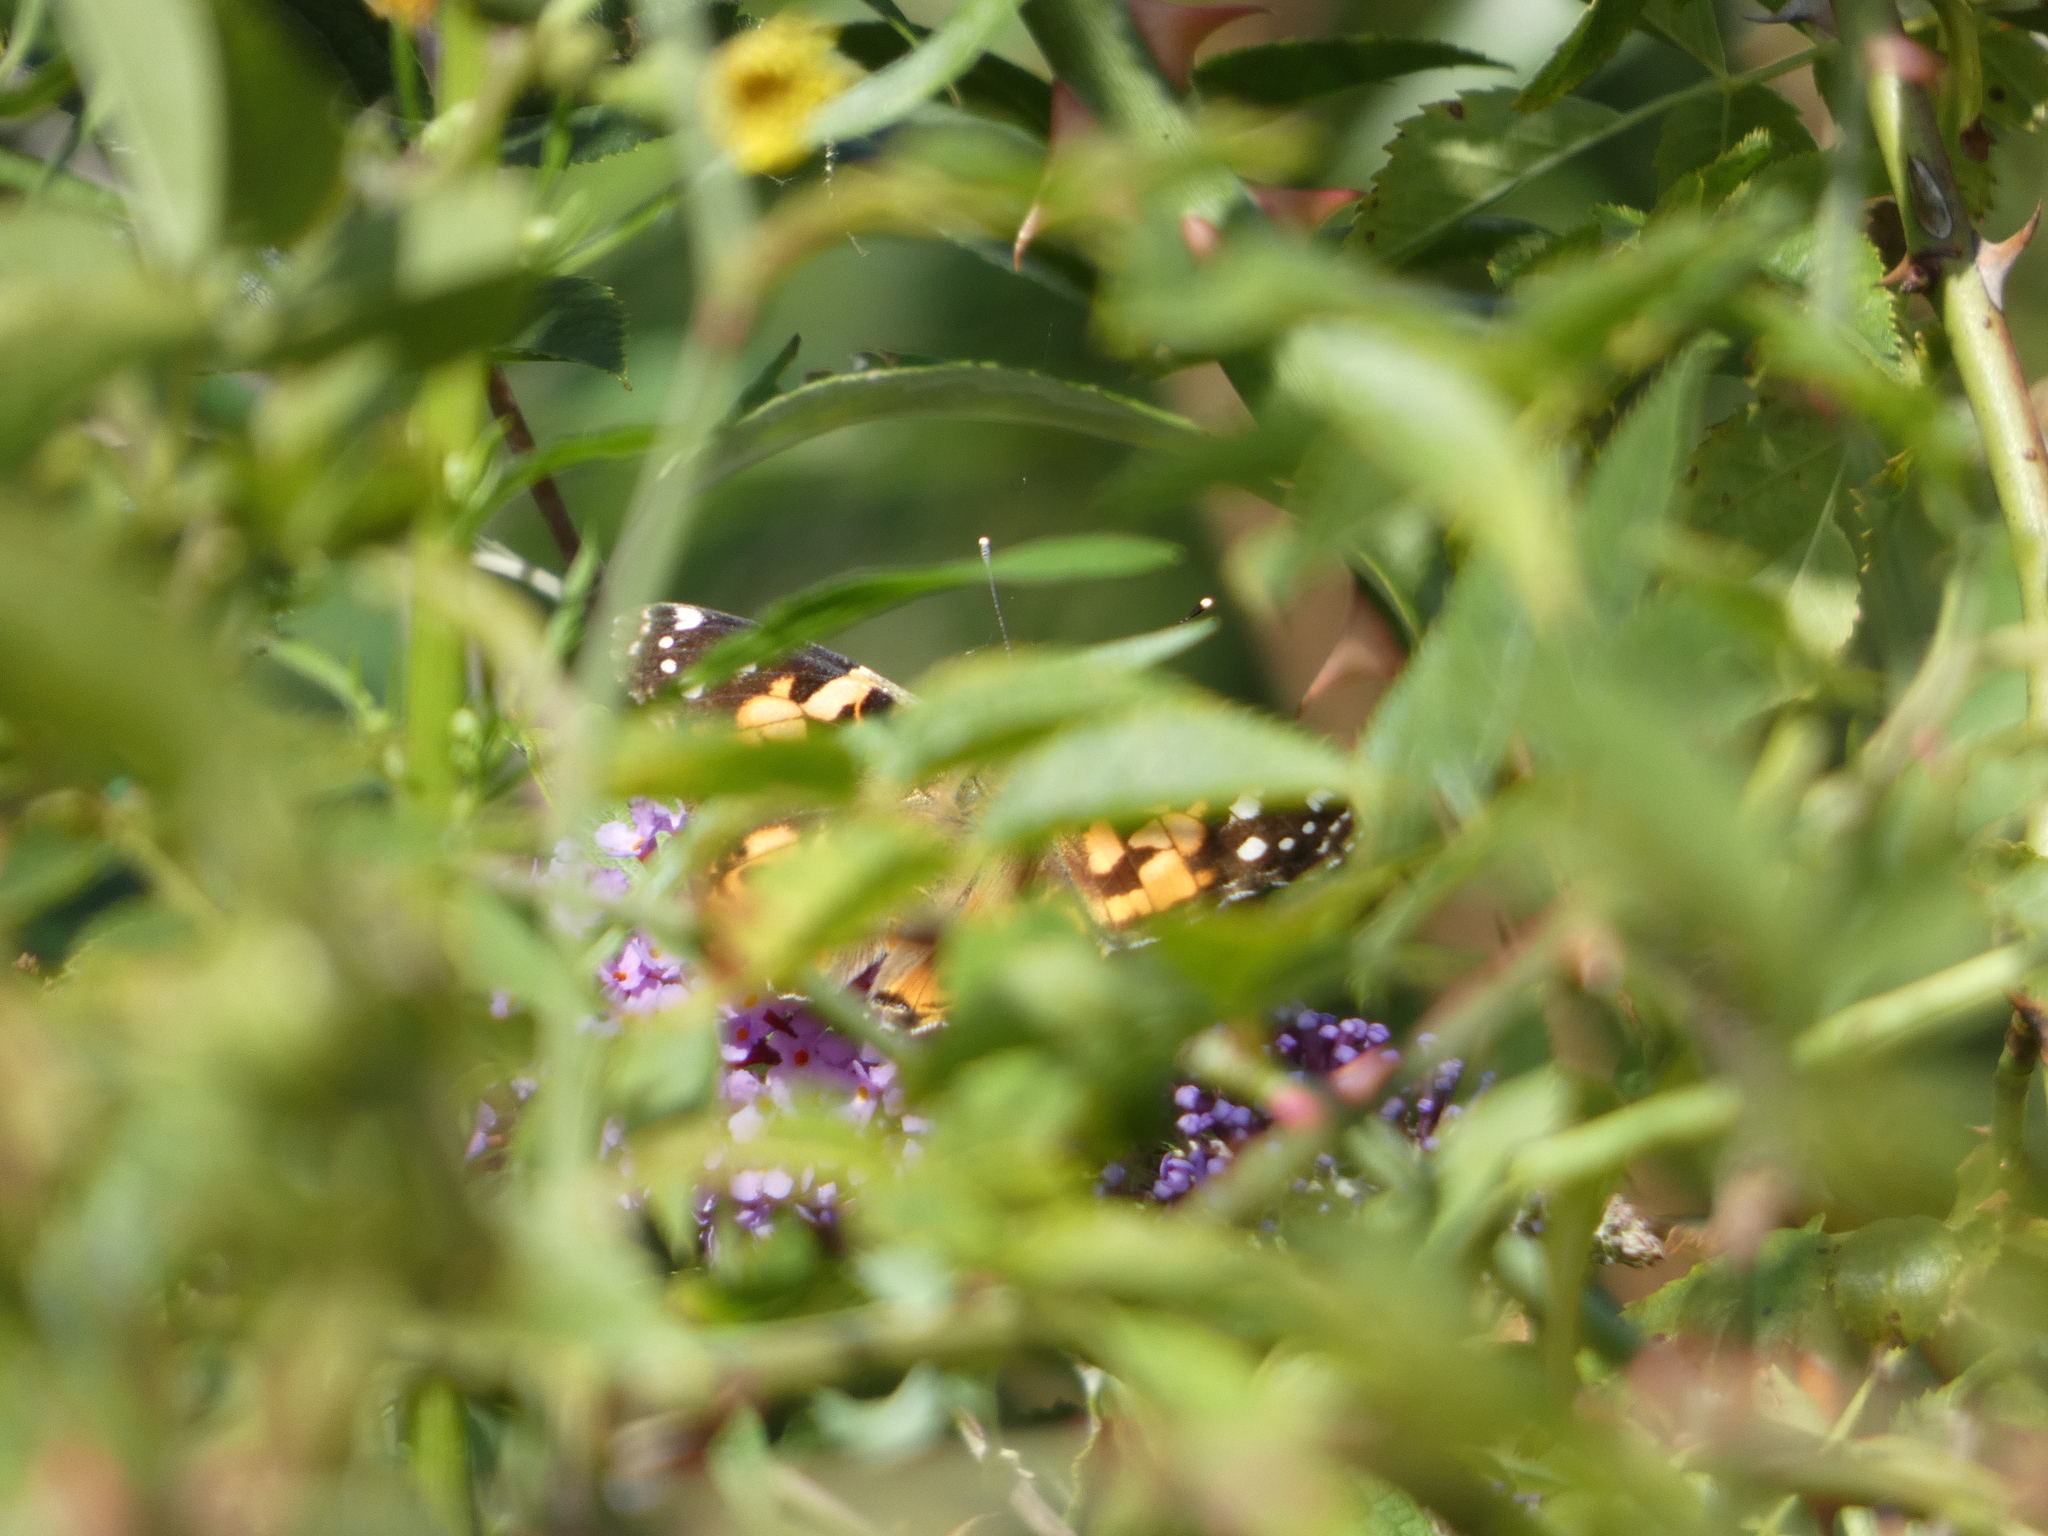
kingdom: Animalia
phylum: Arthropoda
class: Insecta
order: Lepidoptera
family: Nymphalidae
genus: Vanessa
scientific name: Vanessa cardui
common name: Painted lady
